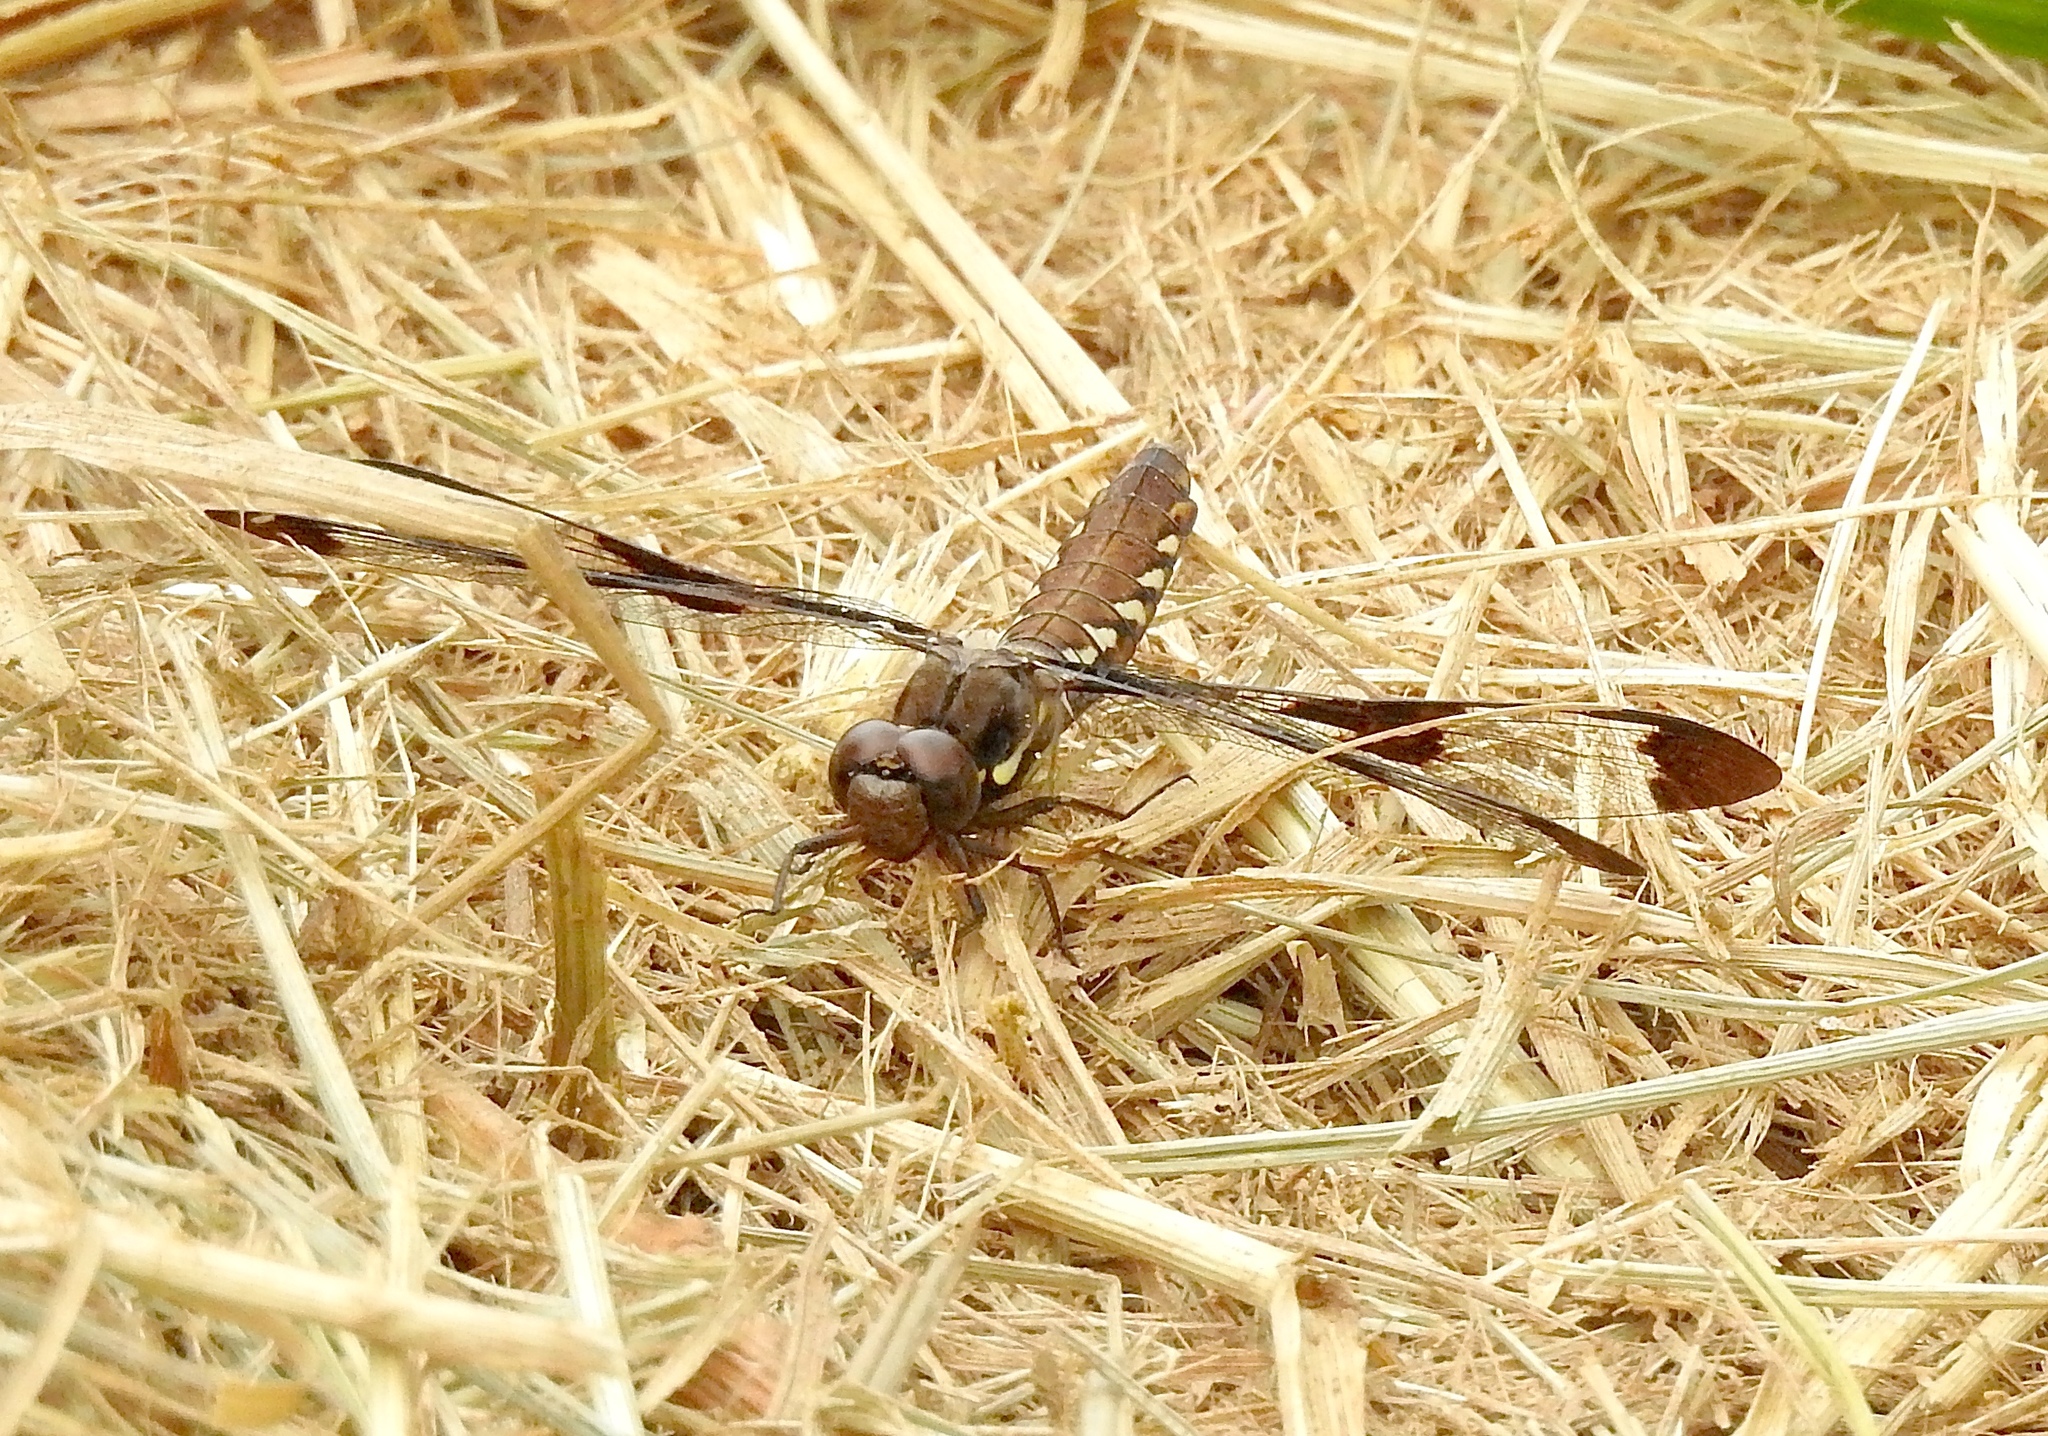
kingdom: Animalia
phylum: Arthropoda
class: Insecta
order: Odonata
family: Libellulidae
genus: Plathemis
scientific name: Plathemis lydia
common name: Common whitetail
